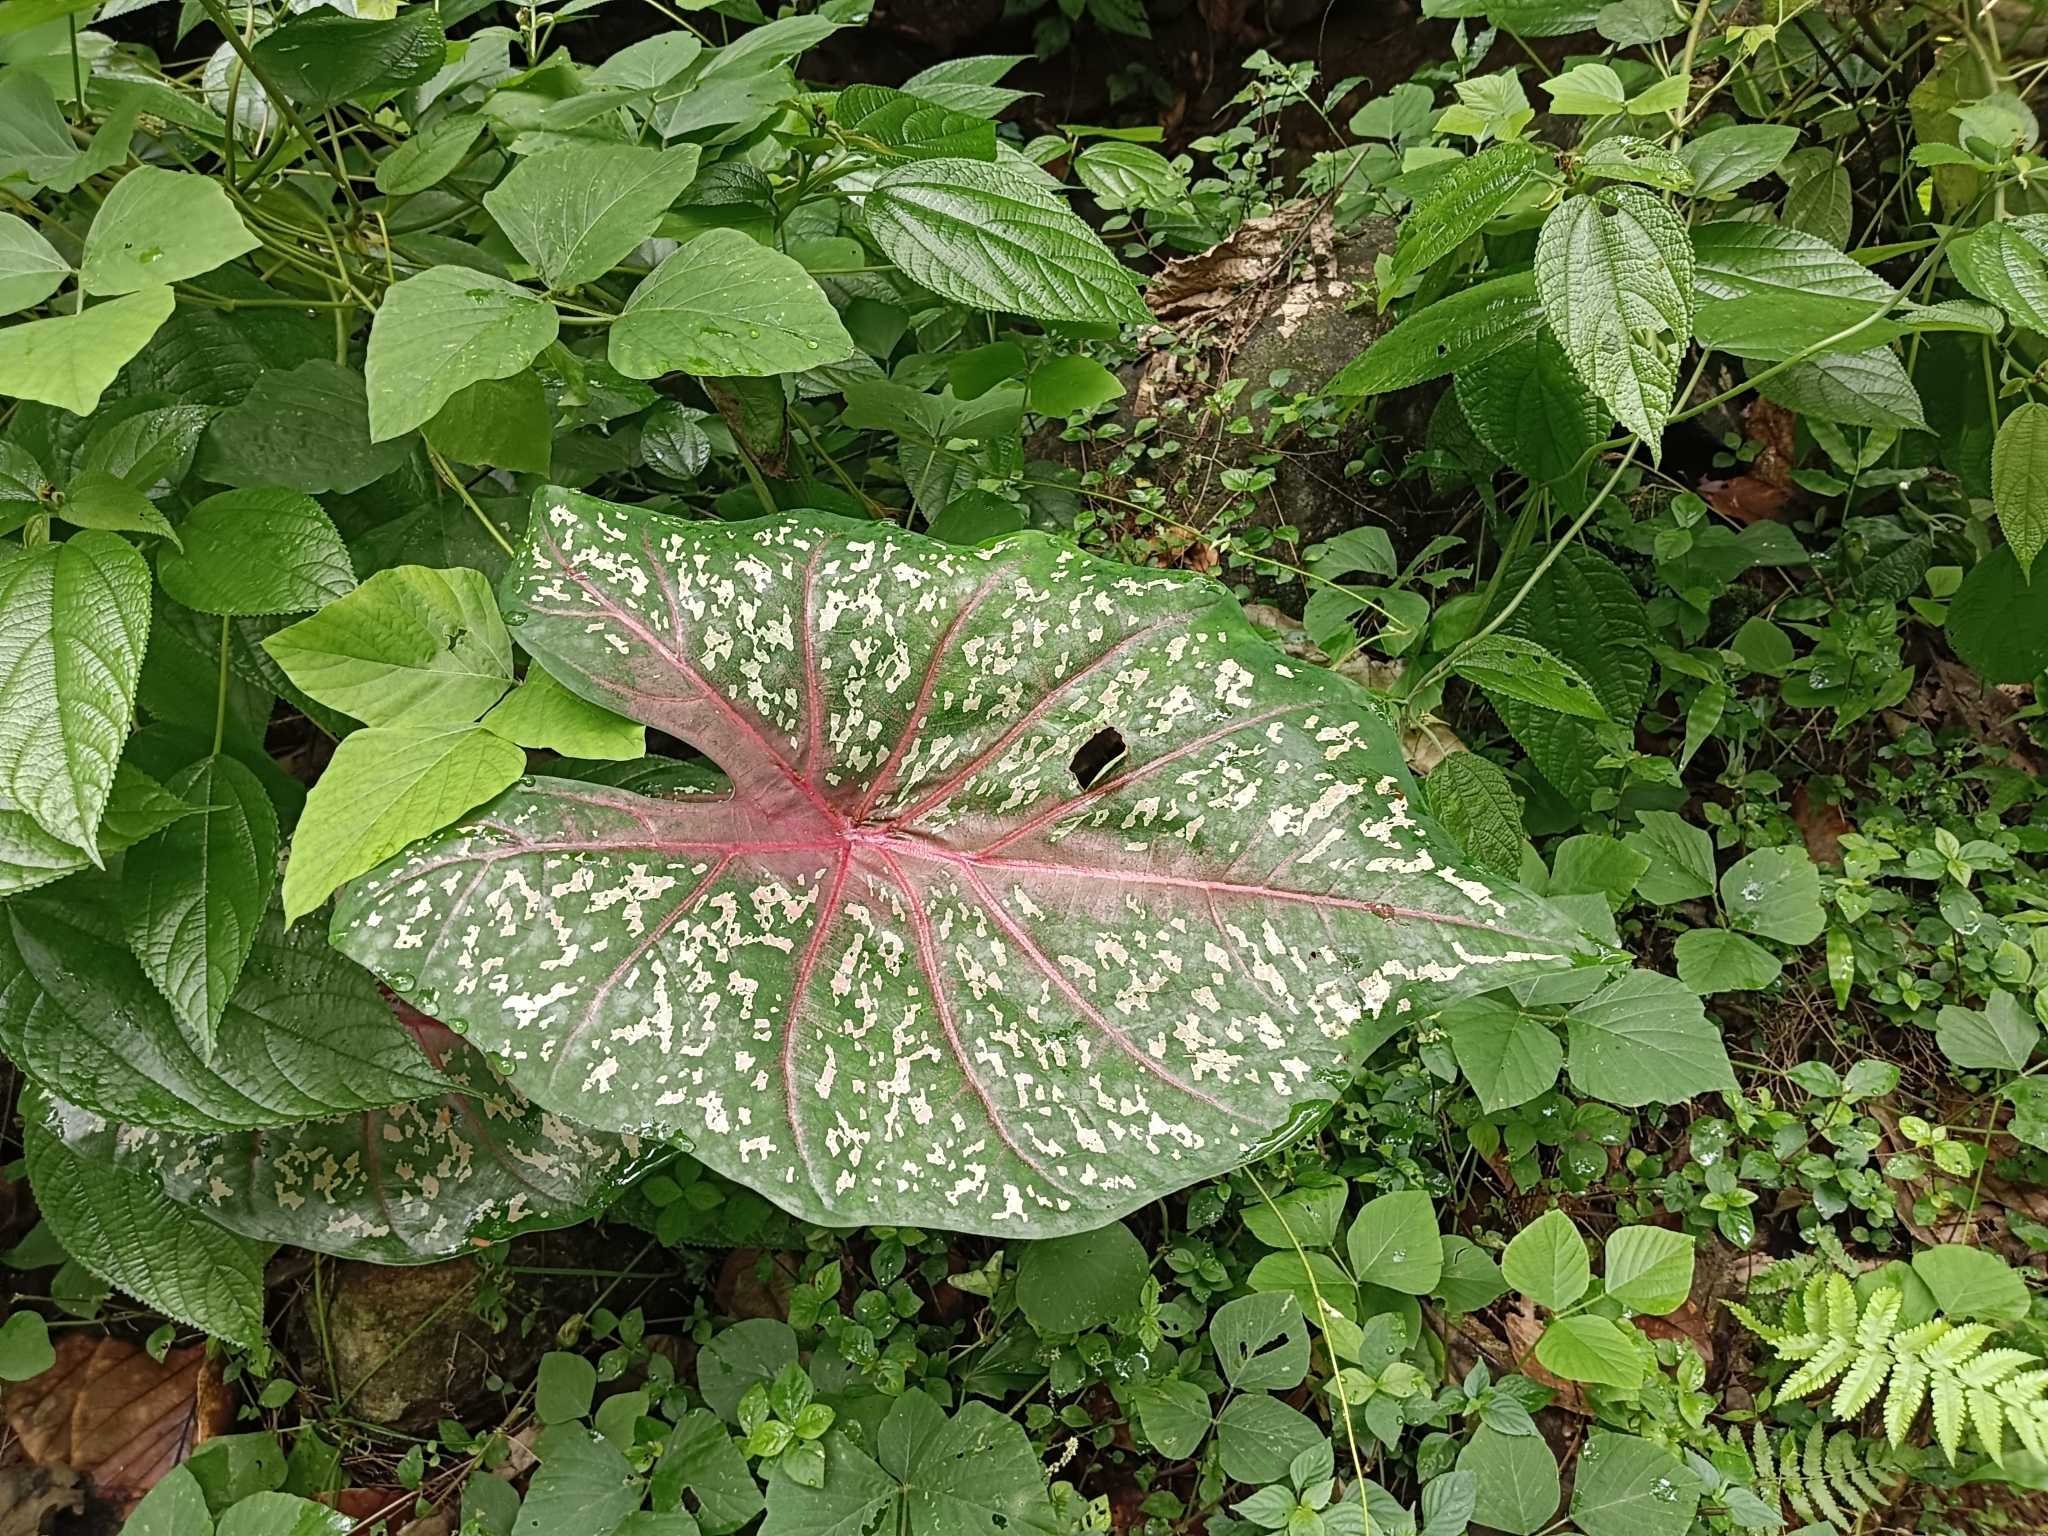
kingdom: Plantae
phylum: Tracheophyta
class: Liliopsida
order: Alismatales
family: Araceae
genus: Caladium
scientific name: Caladium bicolor
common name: Artist's pallet
